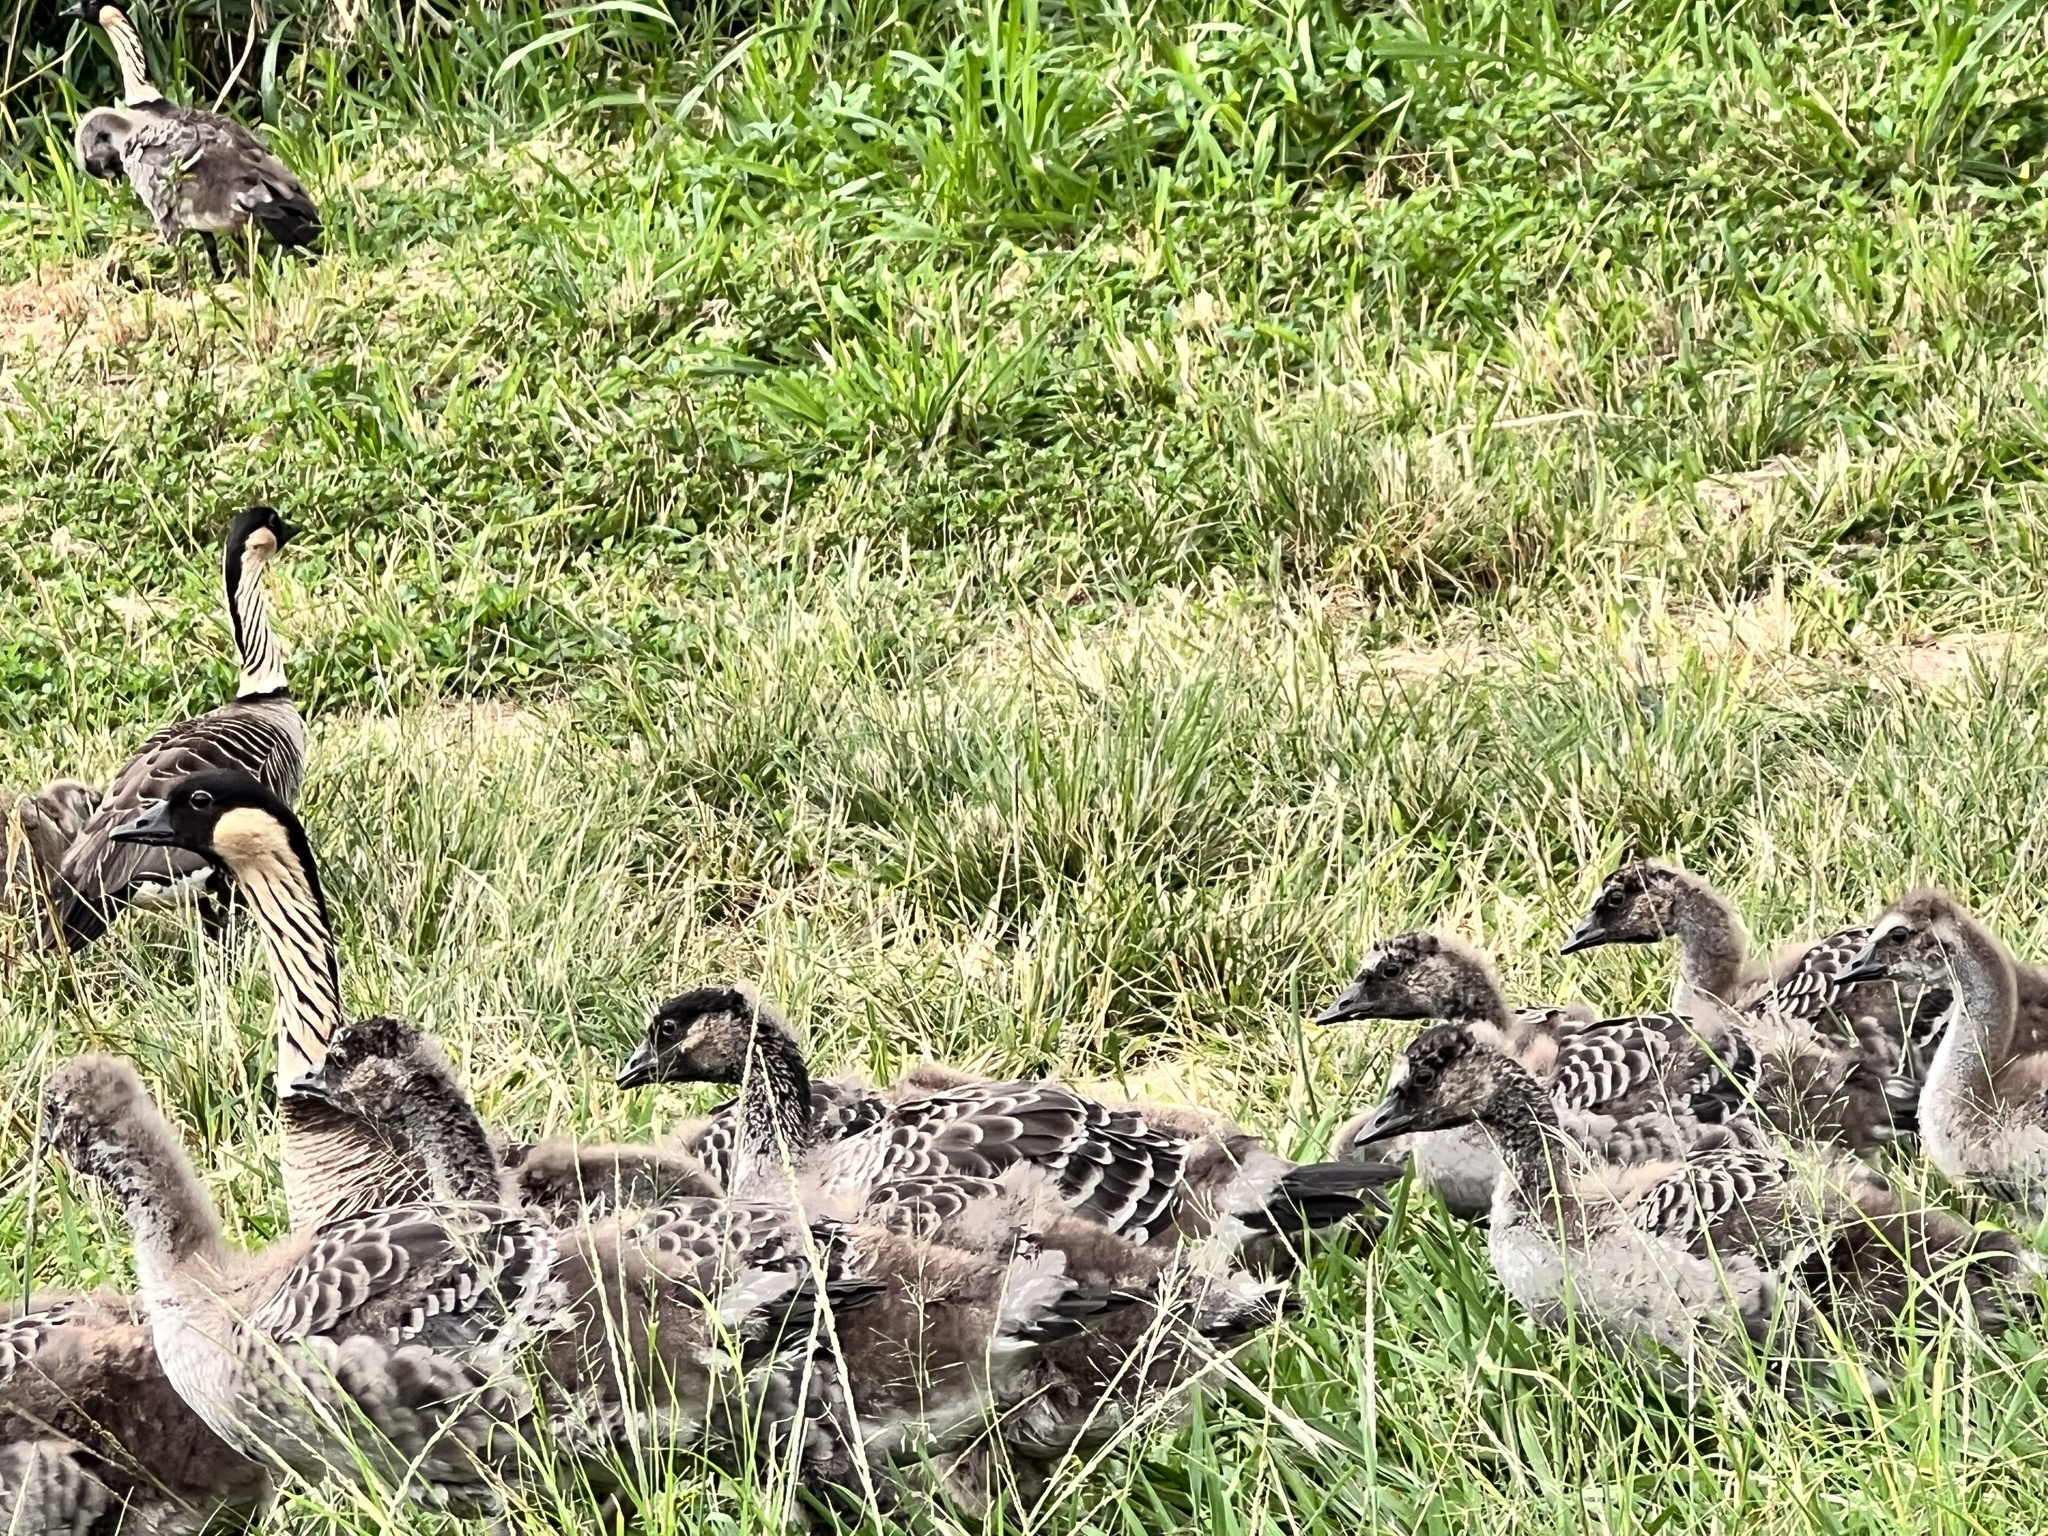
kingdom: Animalia
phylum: Chordata
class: Aves
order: Anseriformes
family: Anatidae
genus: Branta
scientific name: Branta sandvicensis
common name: Nene
